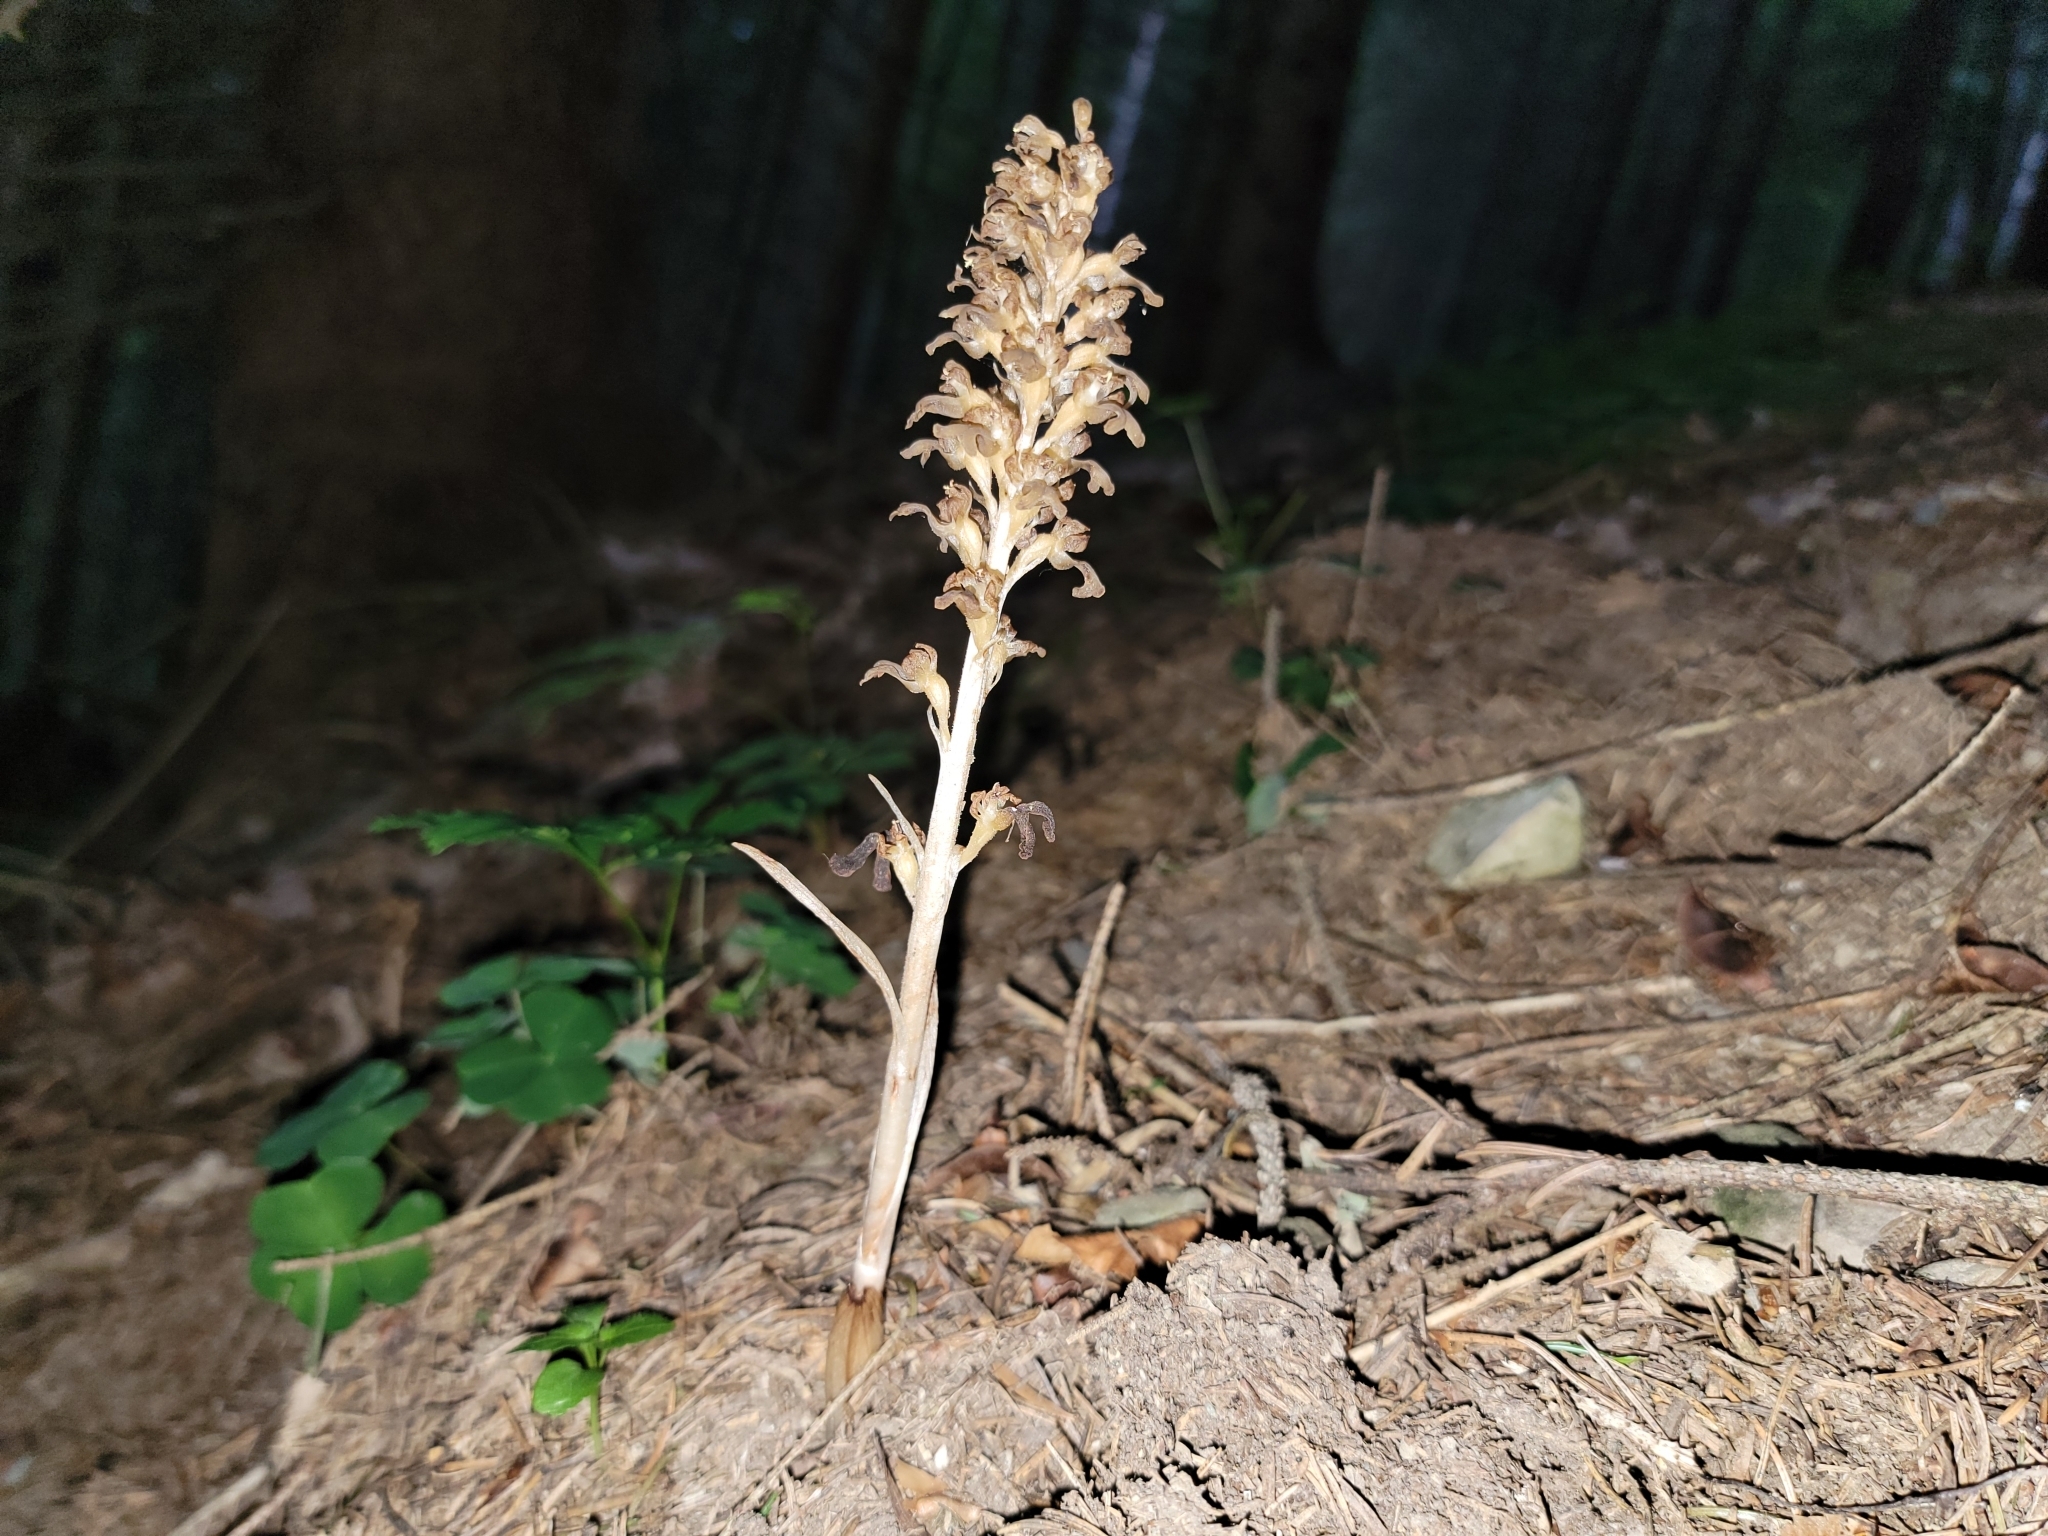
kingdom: Plantae
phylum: Tracheophyta
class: Liliopsida
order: Asparagales
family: Orchidaceae
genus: Neottia
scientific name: Neottia nidus-avis
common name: Bird's-nest orchid
